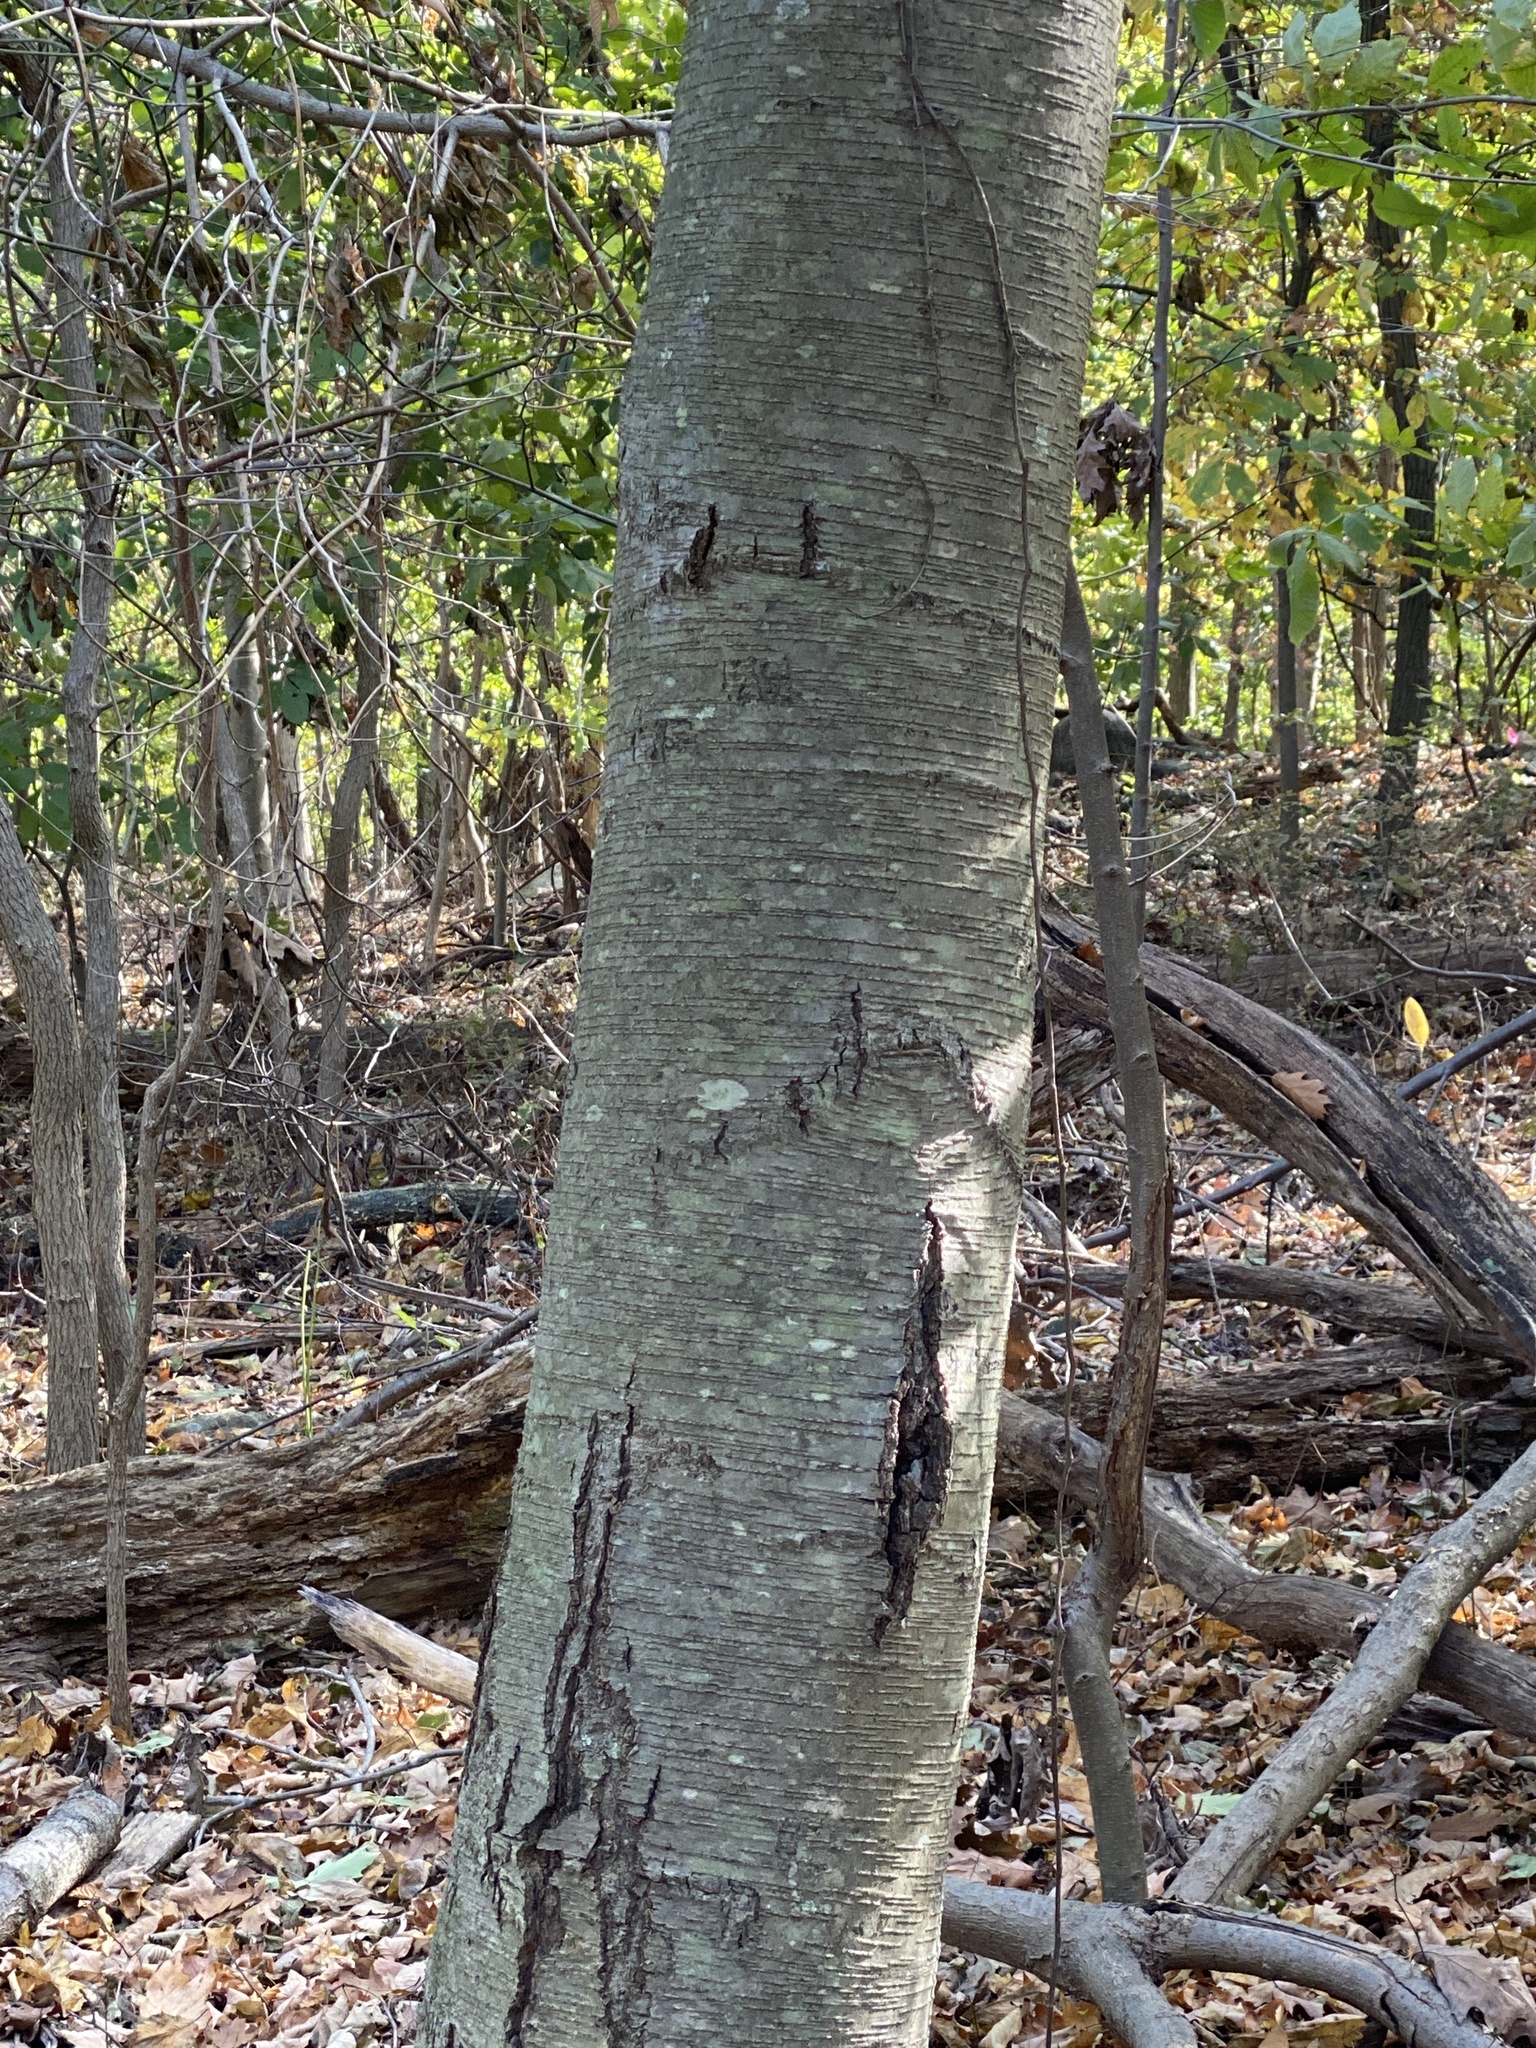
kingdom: Plantae
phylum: Tracheophyta
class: Magnoliopsida
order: Fagales
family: Betulaceae
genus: Betula
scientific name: Betula lenta
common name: Black birch
